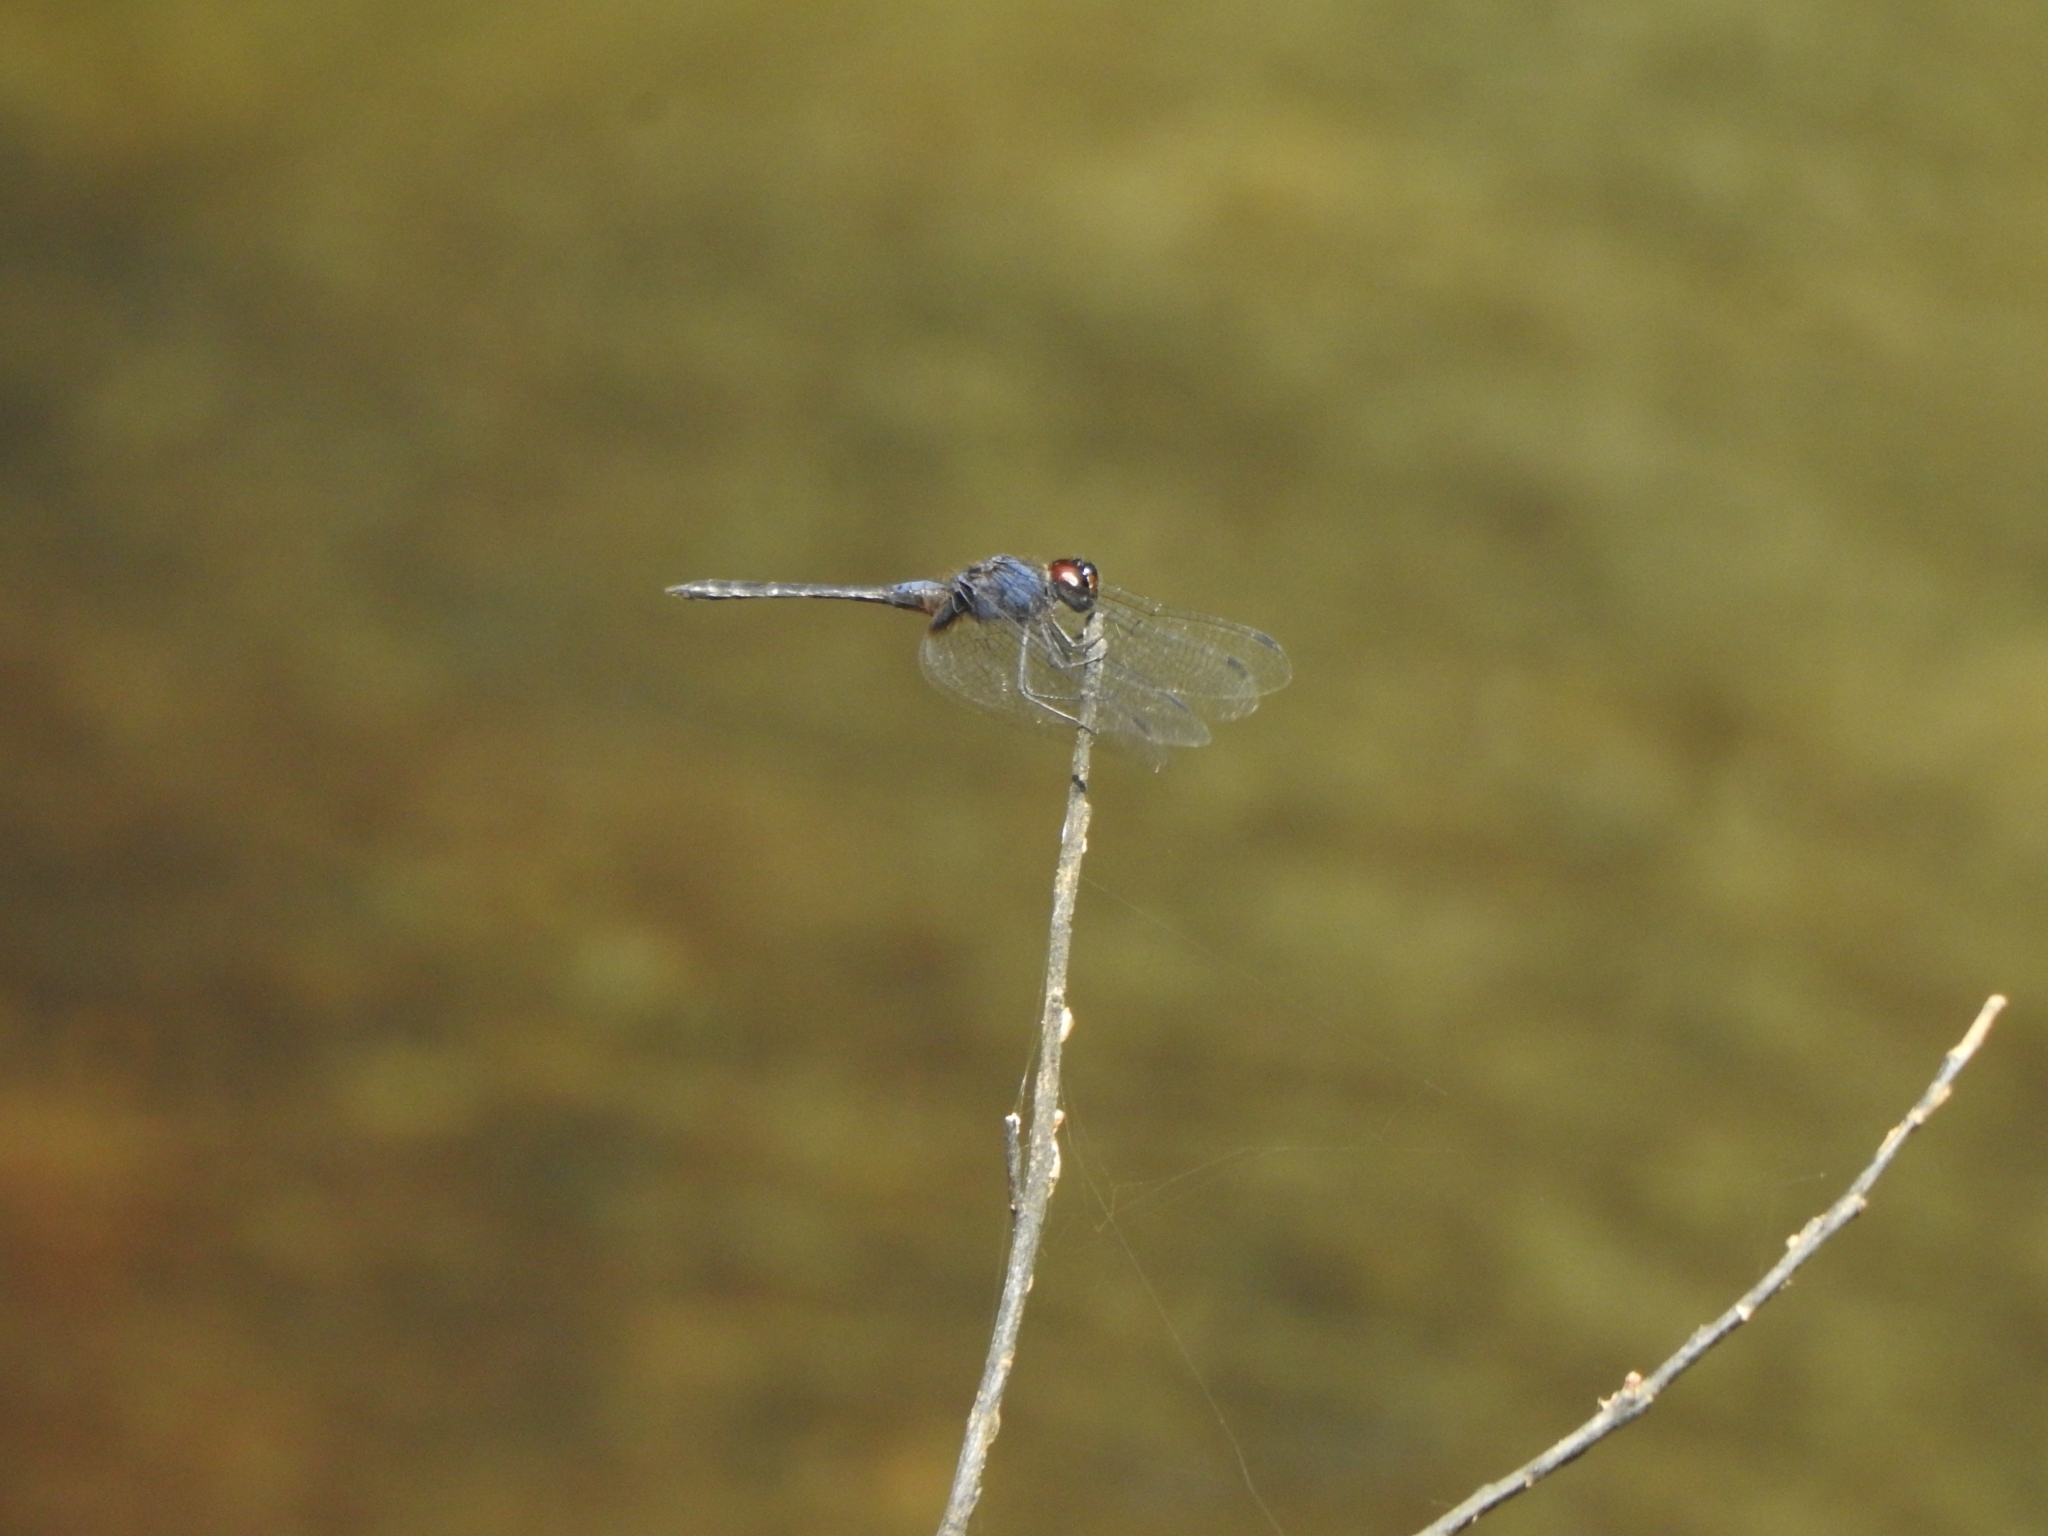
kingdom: Animalia
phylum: Arthropoda
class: Insecta
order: Odonata
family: Libellulidae
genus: Trithemis
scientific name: Trithemis festiva
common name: Indigo dropwing
